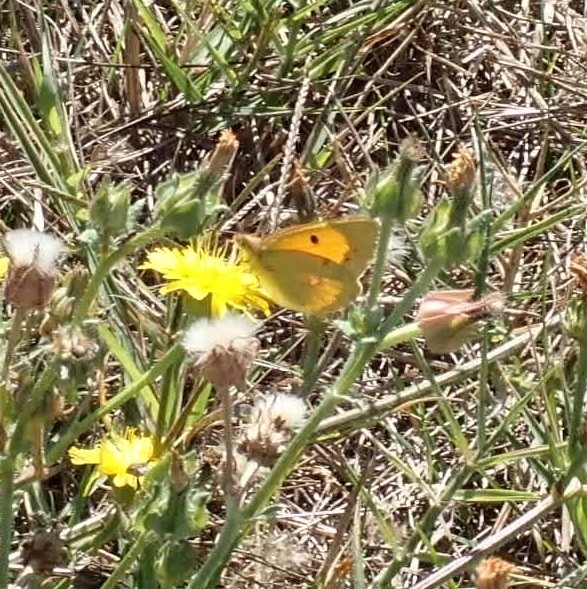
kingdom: Animalia
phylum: Arthropoda
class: Insecta
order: Lepidoptera
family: Pieridae
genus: Colias
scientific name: Colias croceus
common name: Clouded yellow
